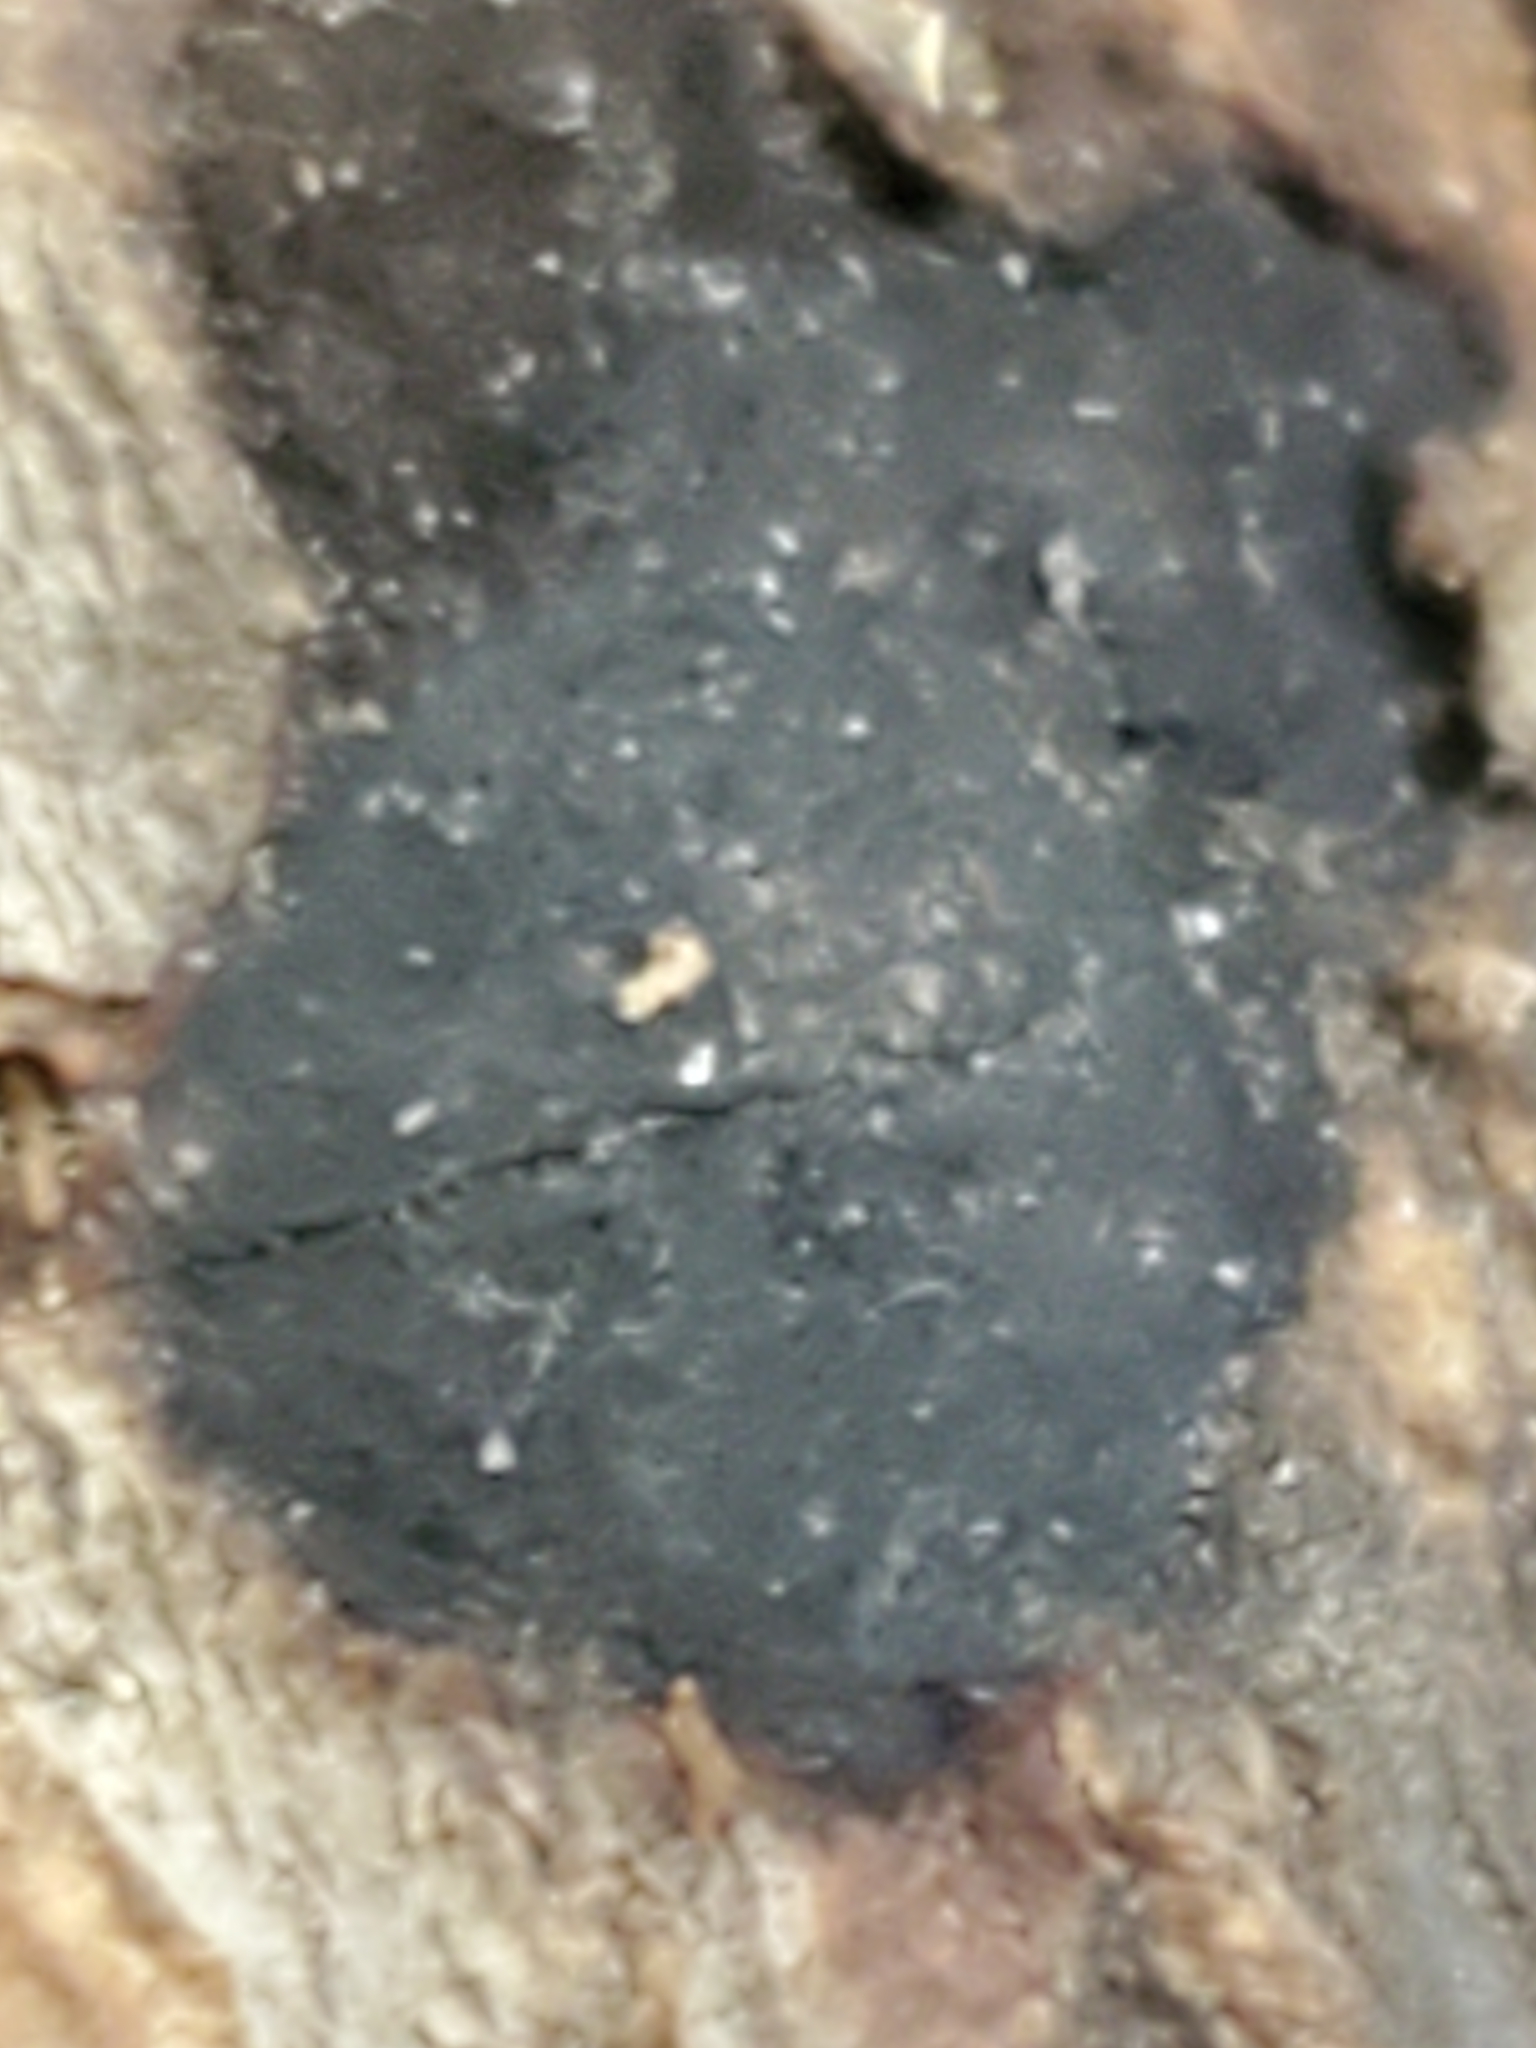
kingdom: Fungi
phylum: Ascomycota
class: Sordariomycetes
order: Xylariales
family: Xylariaceae
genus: Whalleya
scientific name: Whalleya microplaca
